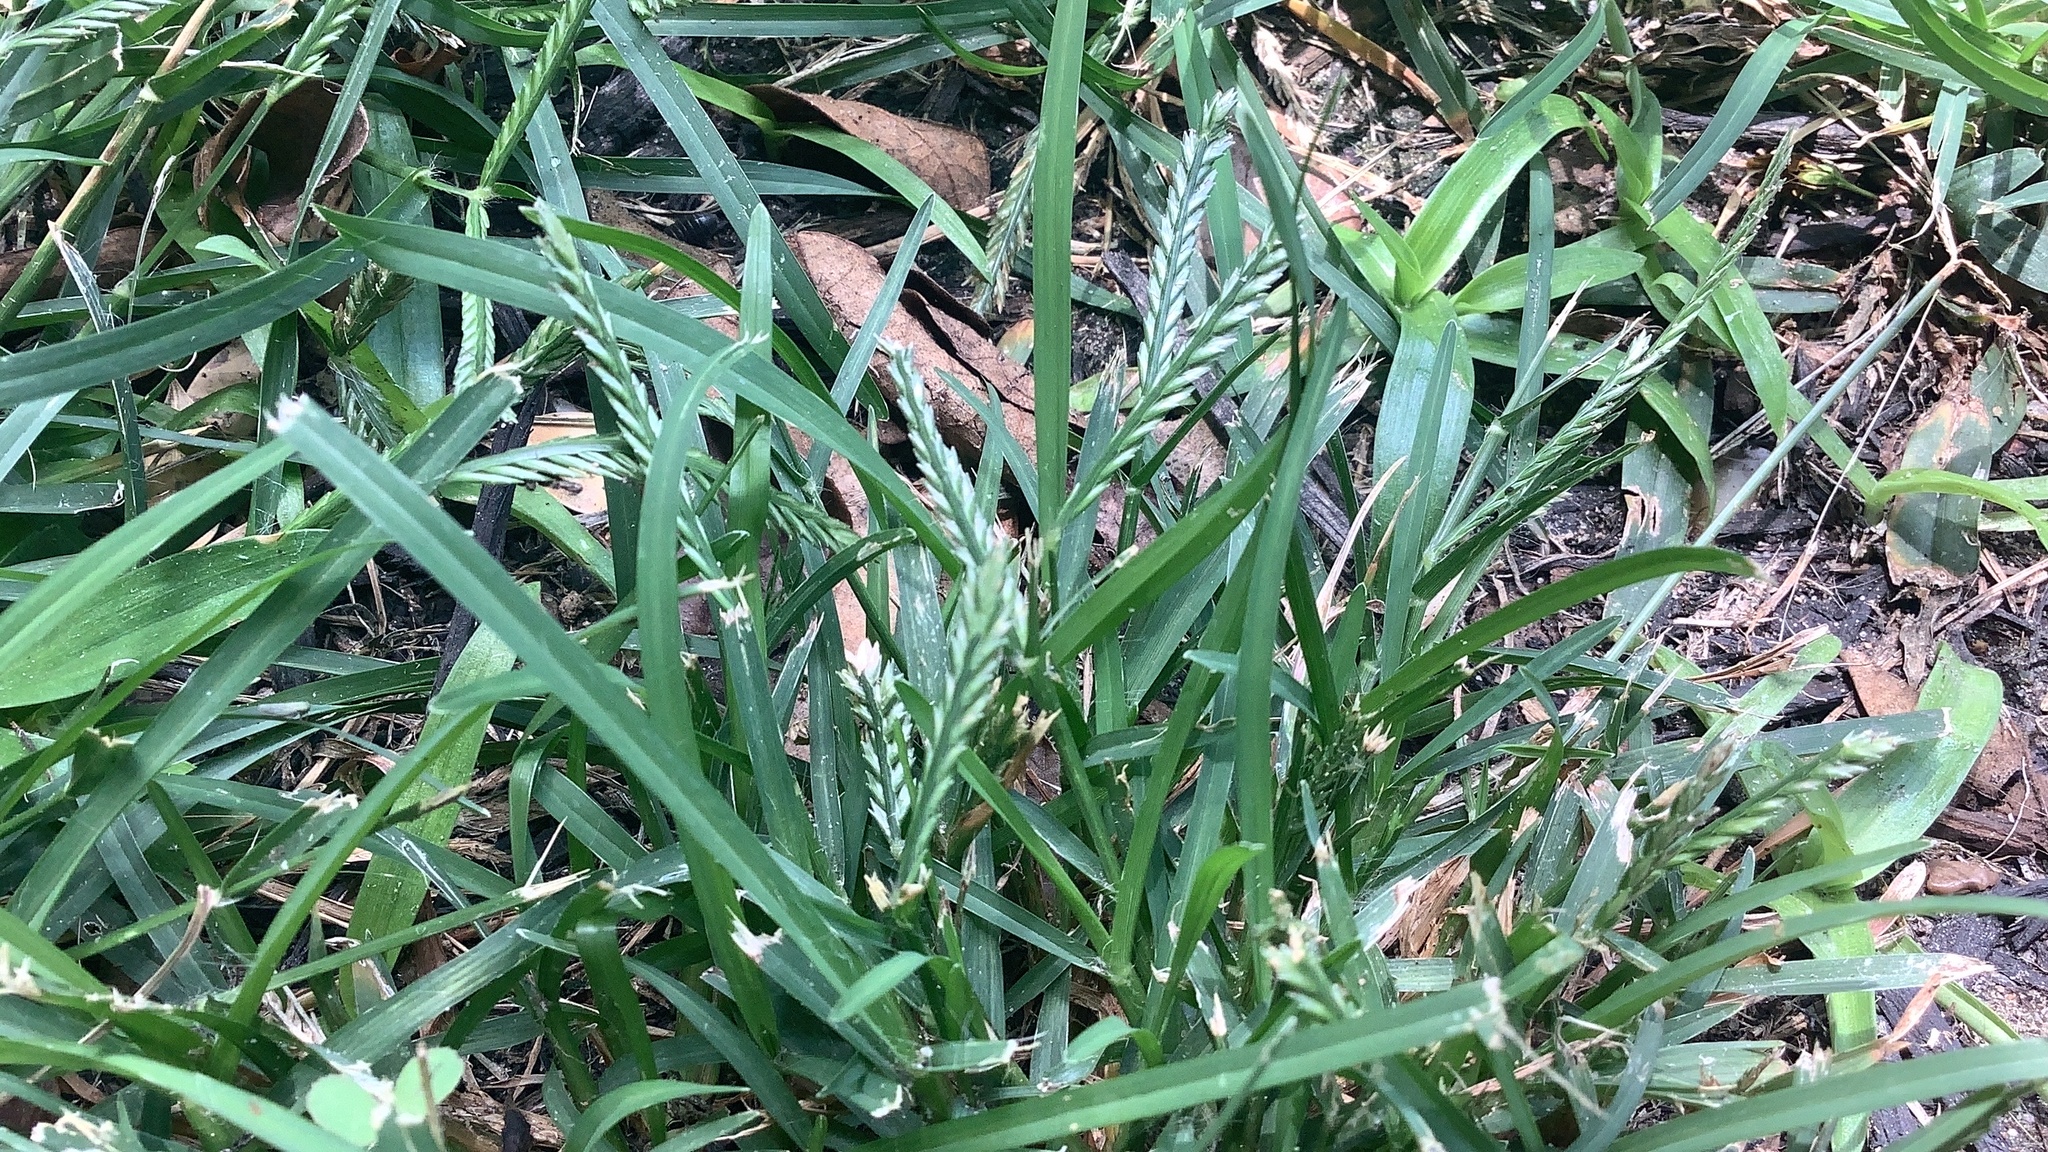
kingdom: Plantae
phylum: Tracheophyta
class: Liliopsida
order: Poales
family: Poaceae
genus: Eleusine
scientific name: Eleusine indica
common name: Yard-grass
